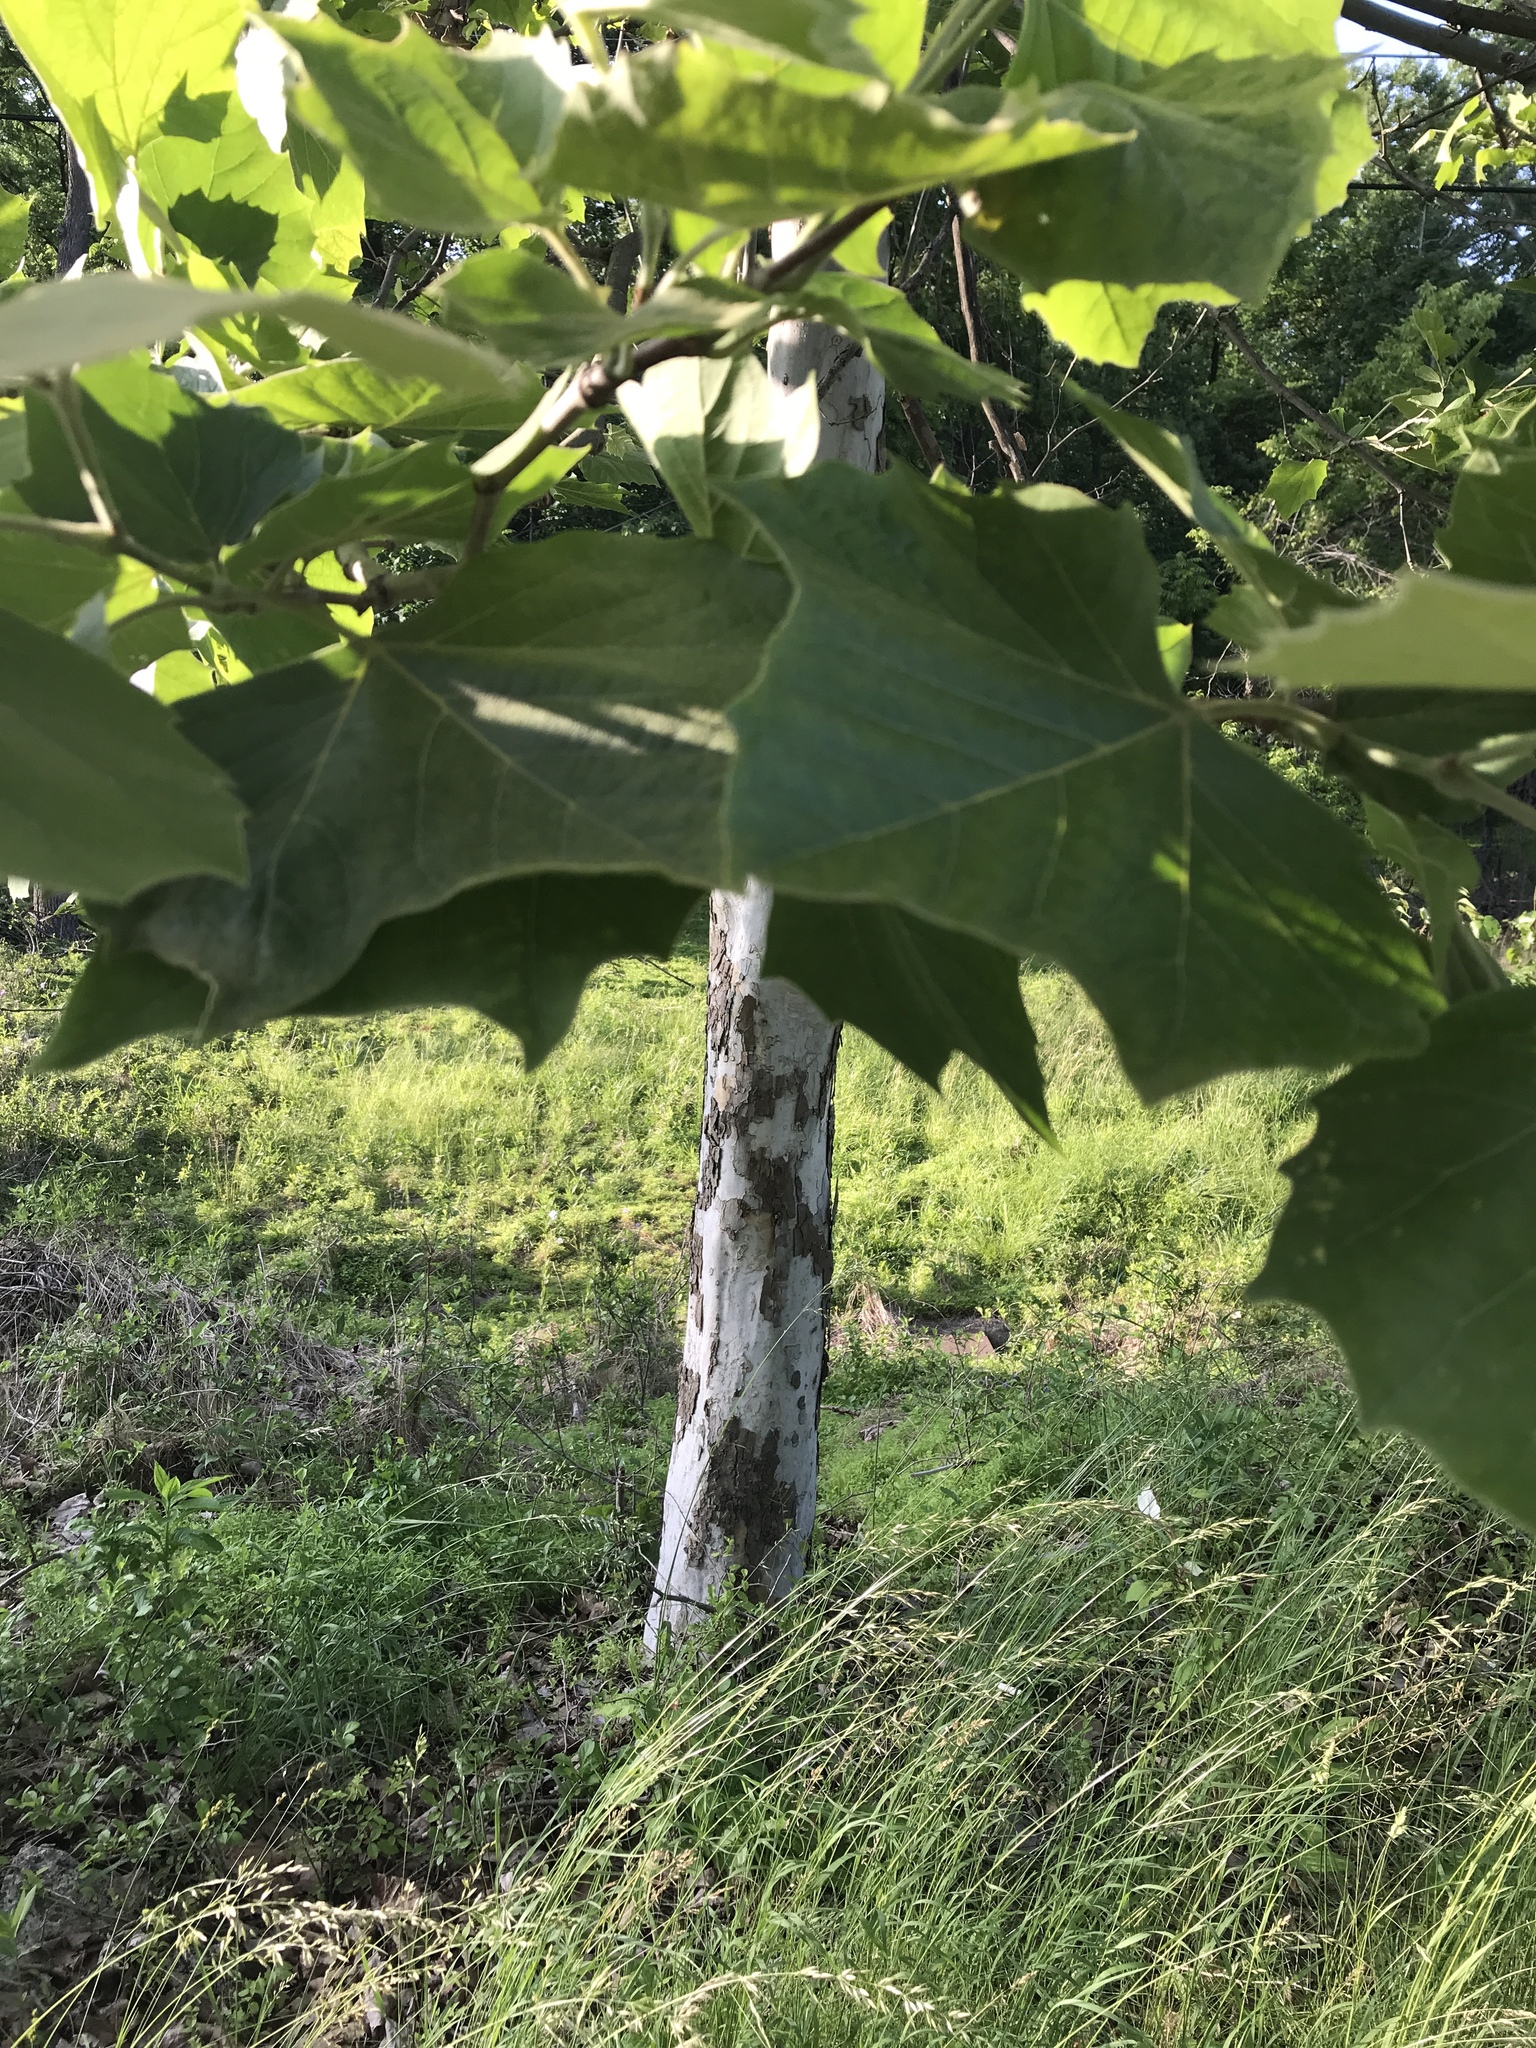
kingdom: Plantae
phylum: Tracheophyta
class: Magnoliopsida
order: Proteales
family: Platanaceae
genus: Platanus
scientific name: Platanus occidentalis
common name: American sycamore
